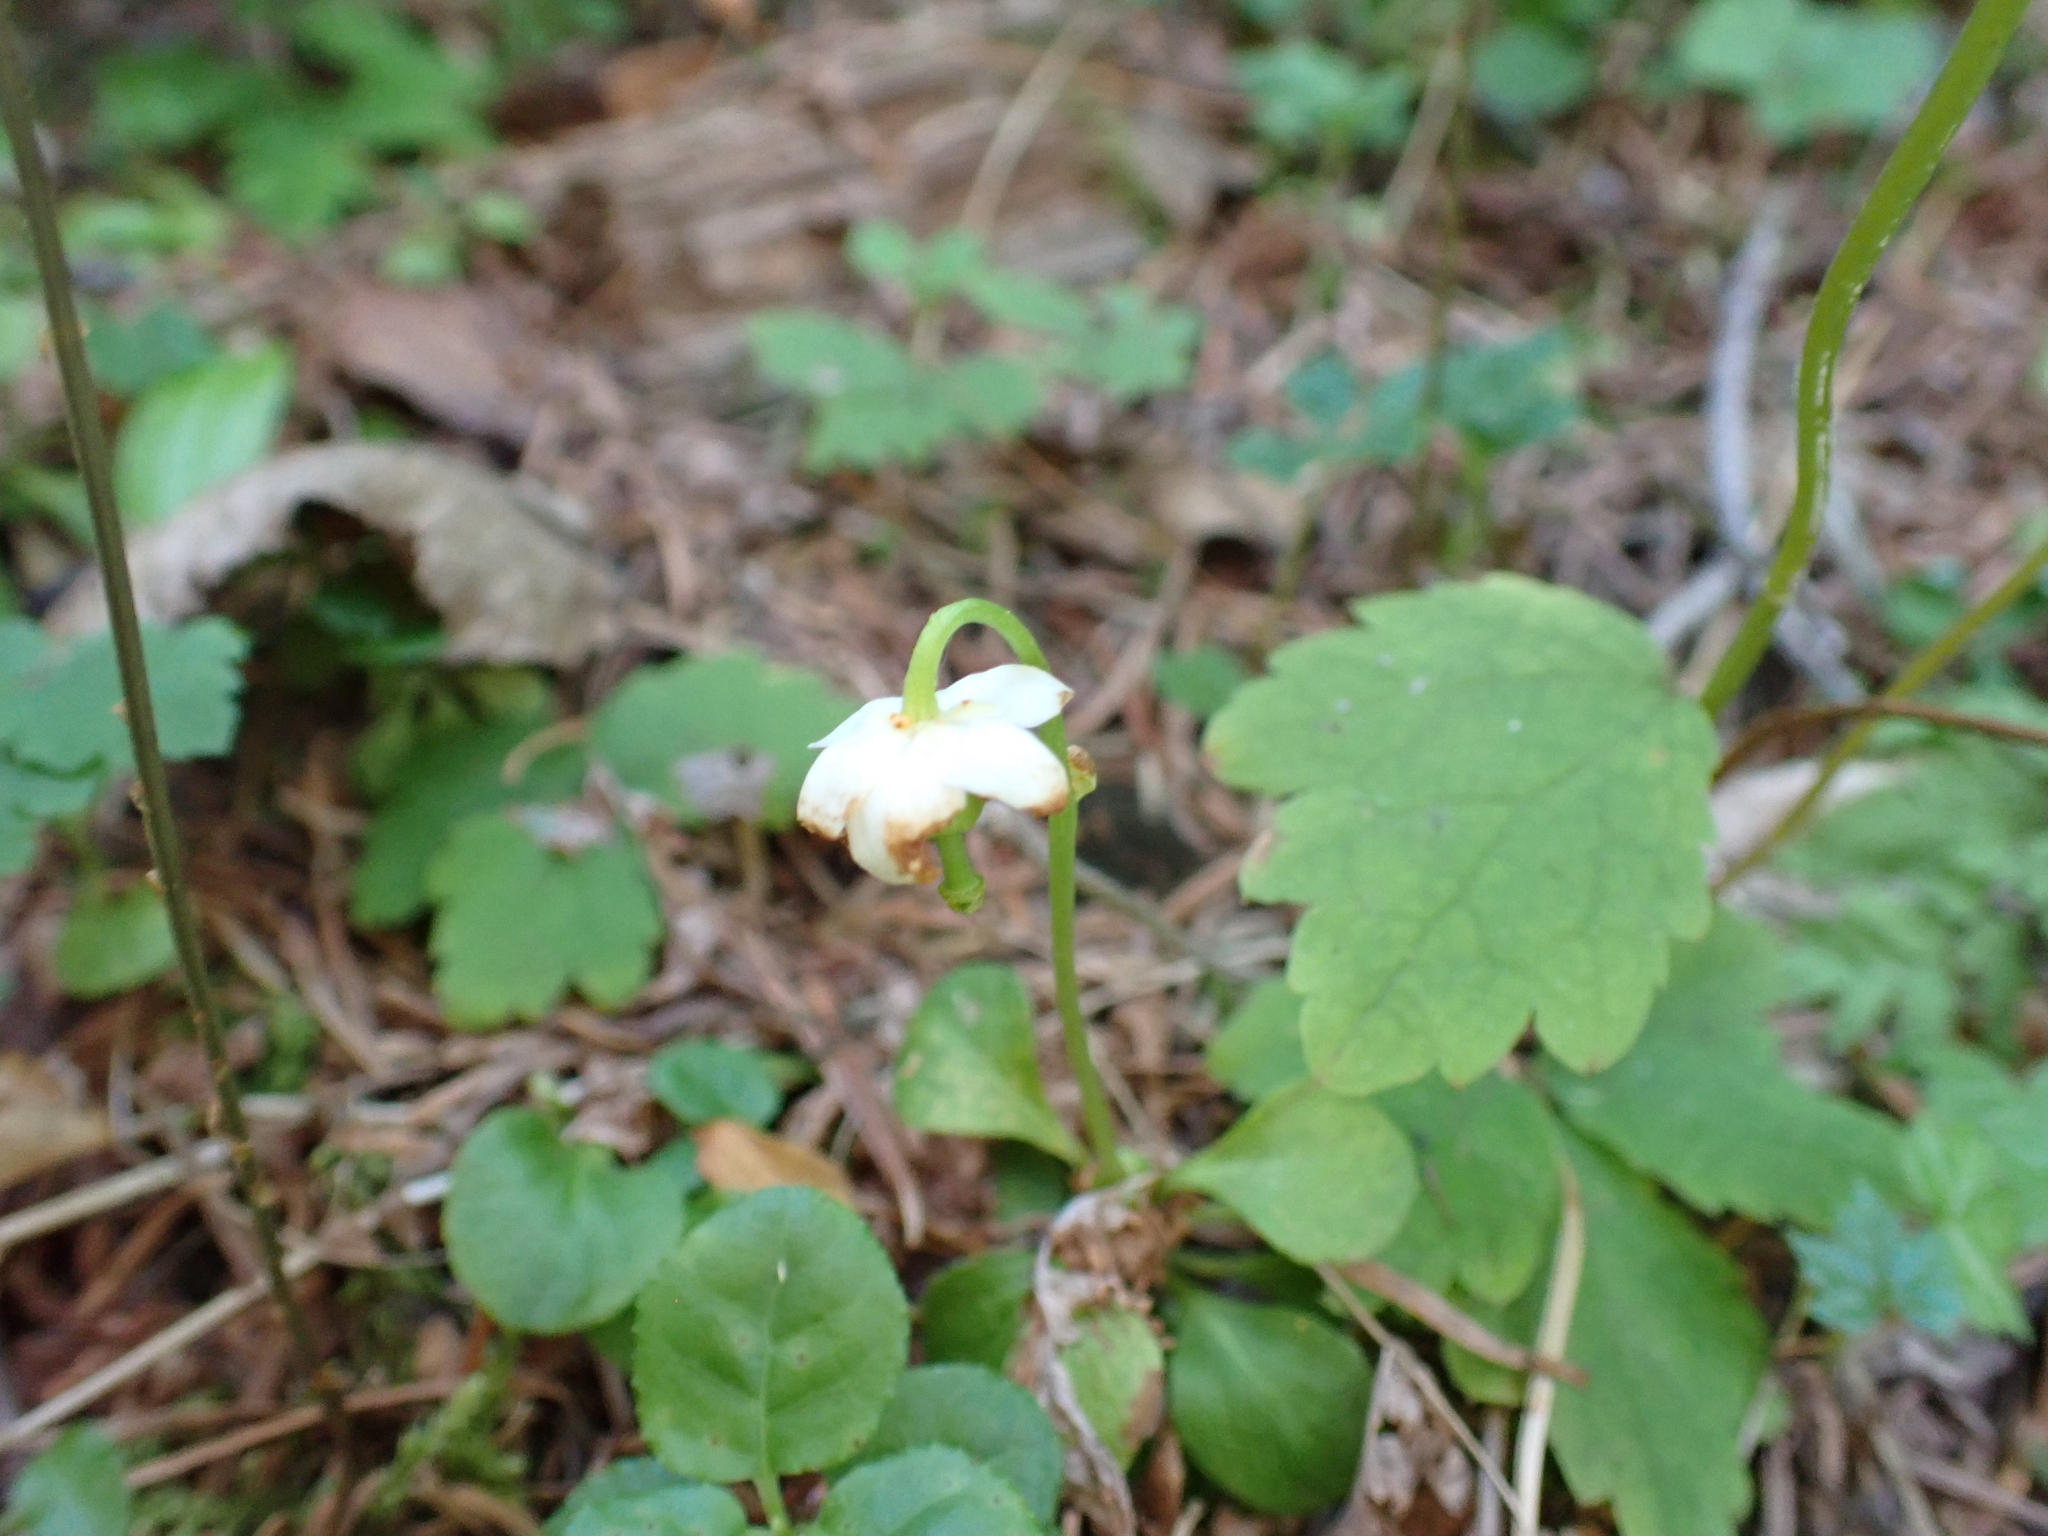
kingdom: Plantae
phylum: Tracheophyta
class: Magnoliopsida
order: Ericales
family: Ericaceae
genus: Moneses
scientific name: Moneses uniflora
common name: One-flowered wintergreen
